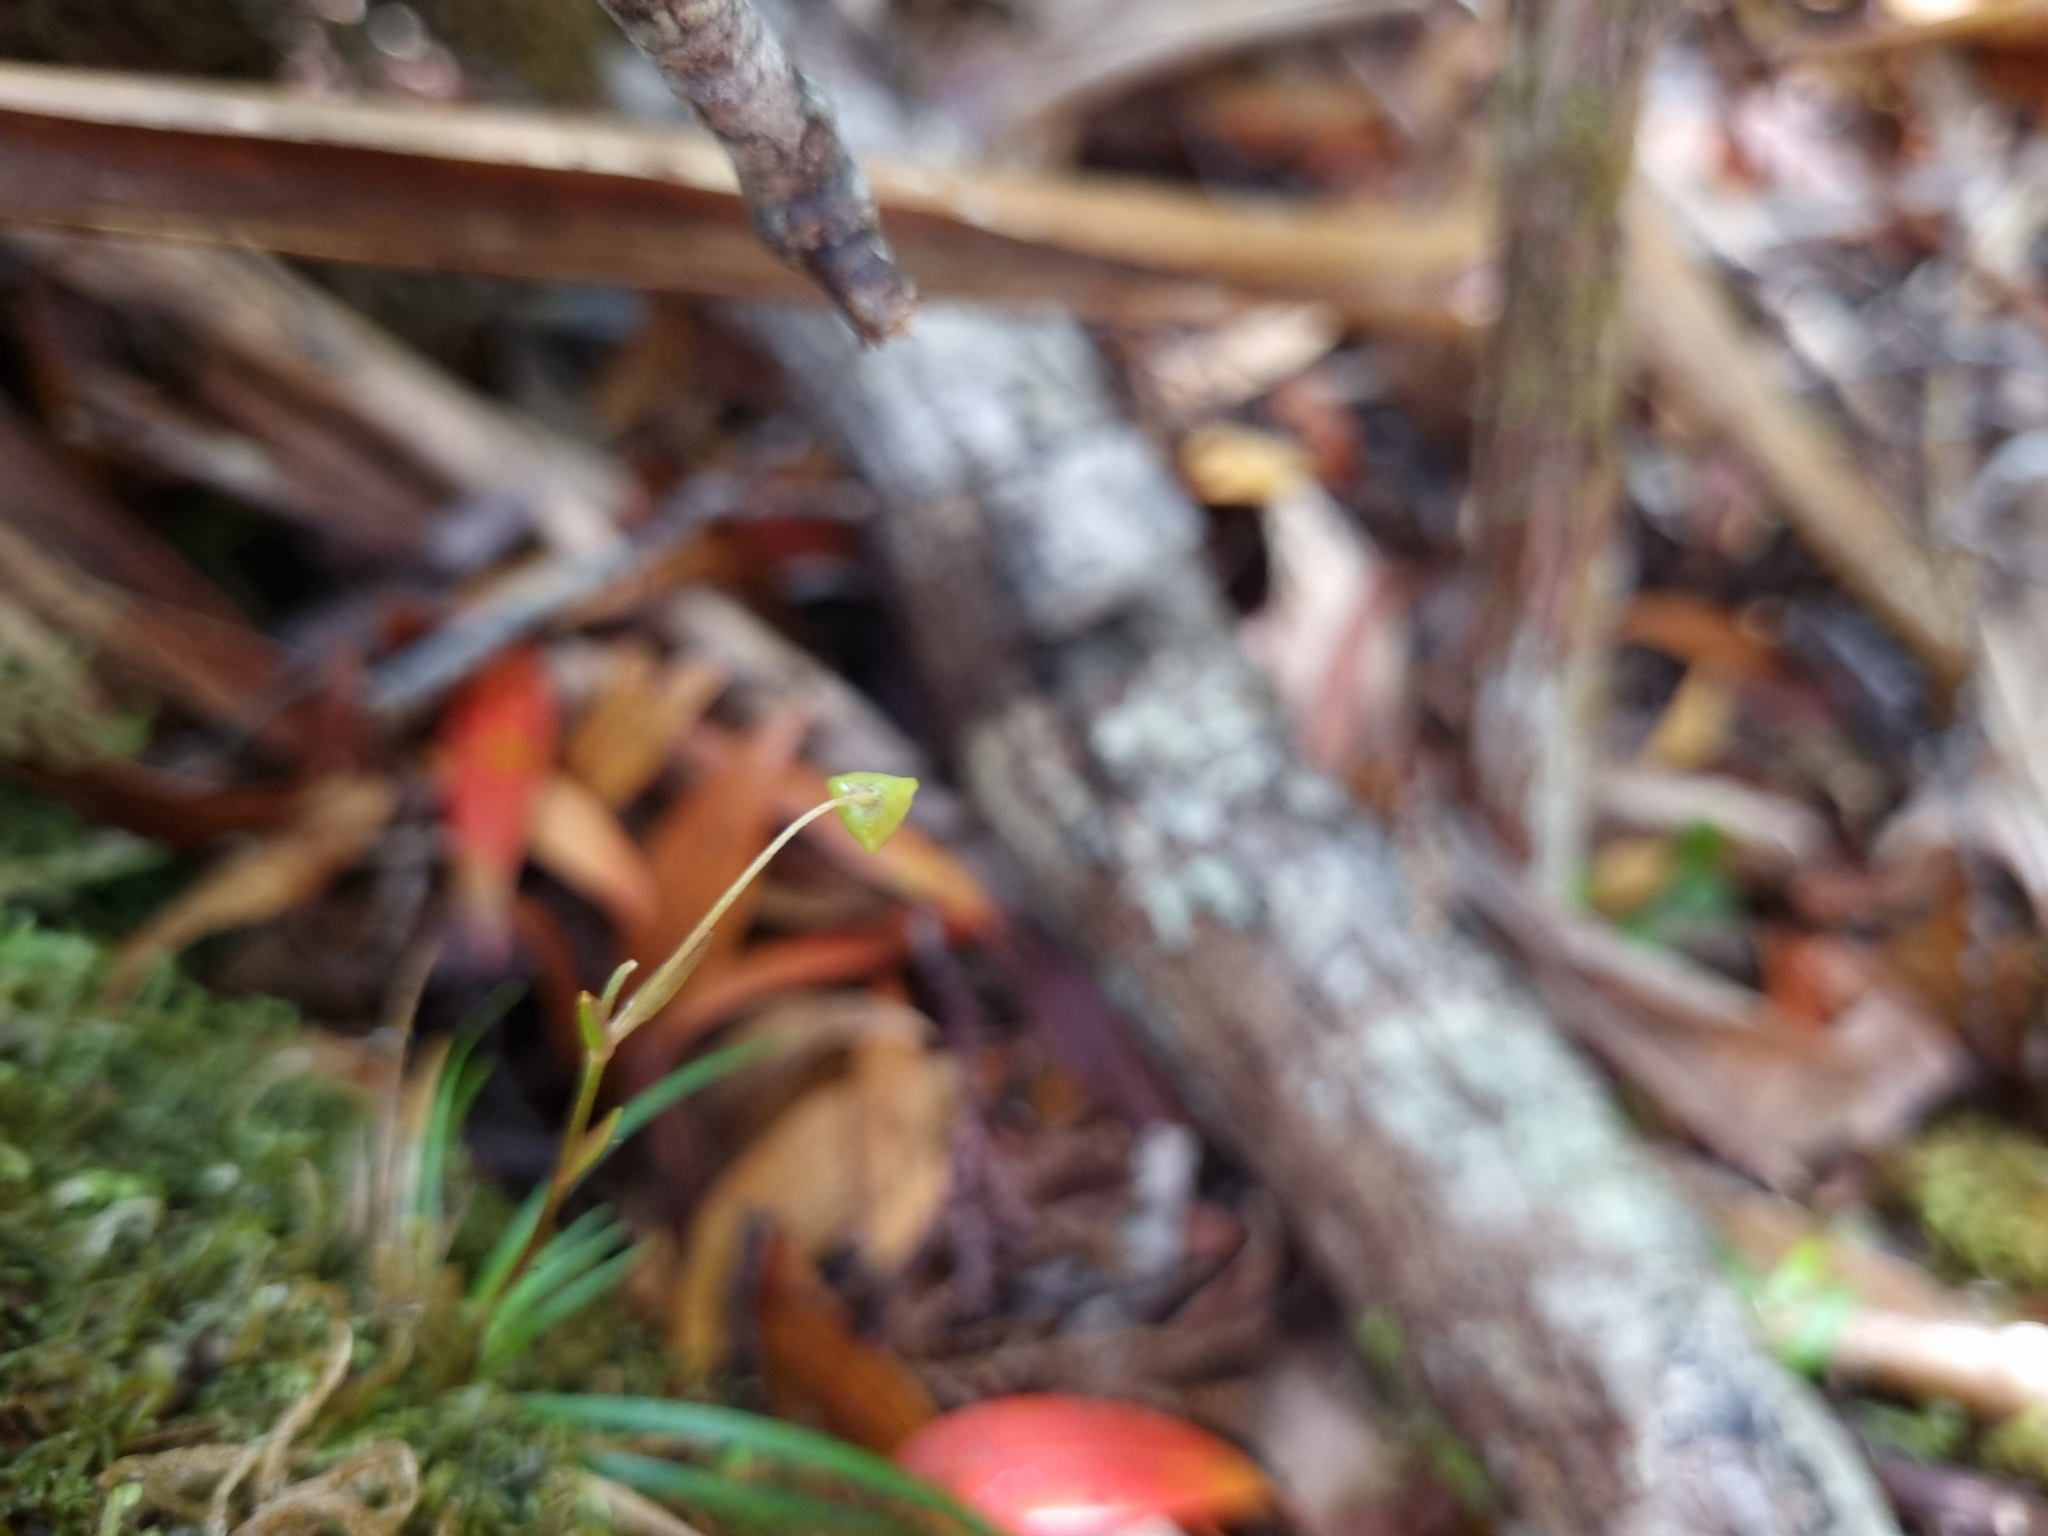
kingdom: Plantae
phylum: Tracheophyta
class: Liliopsida
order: Asparagales
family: Iridaceae
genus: Libertia
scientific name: Libertia micrantha
